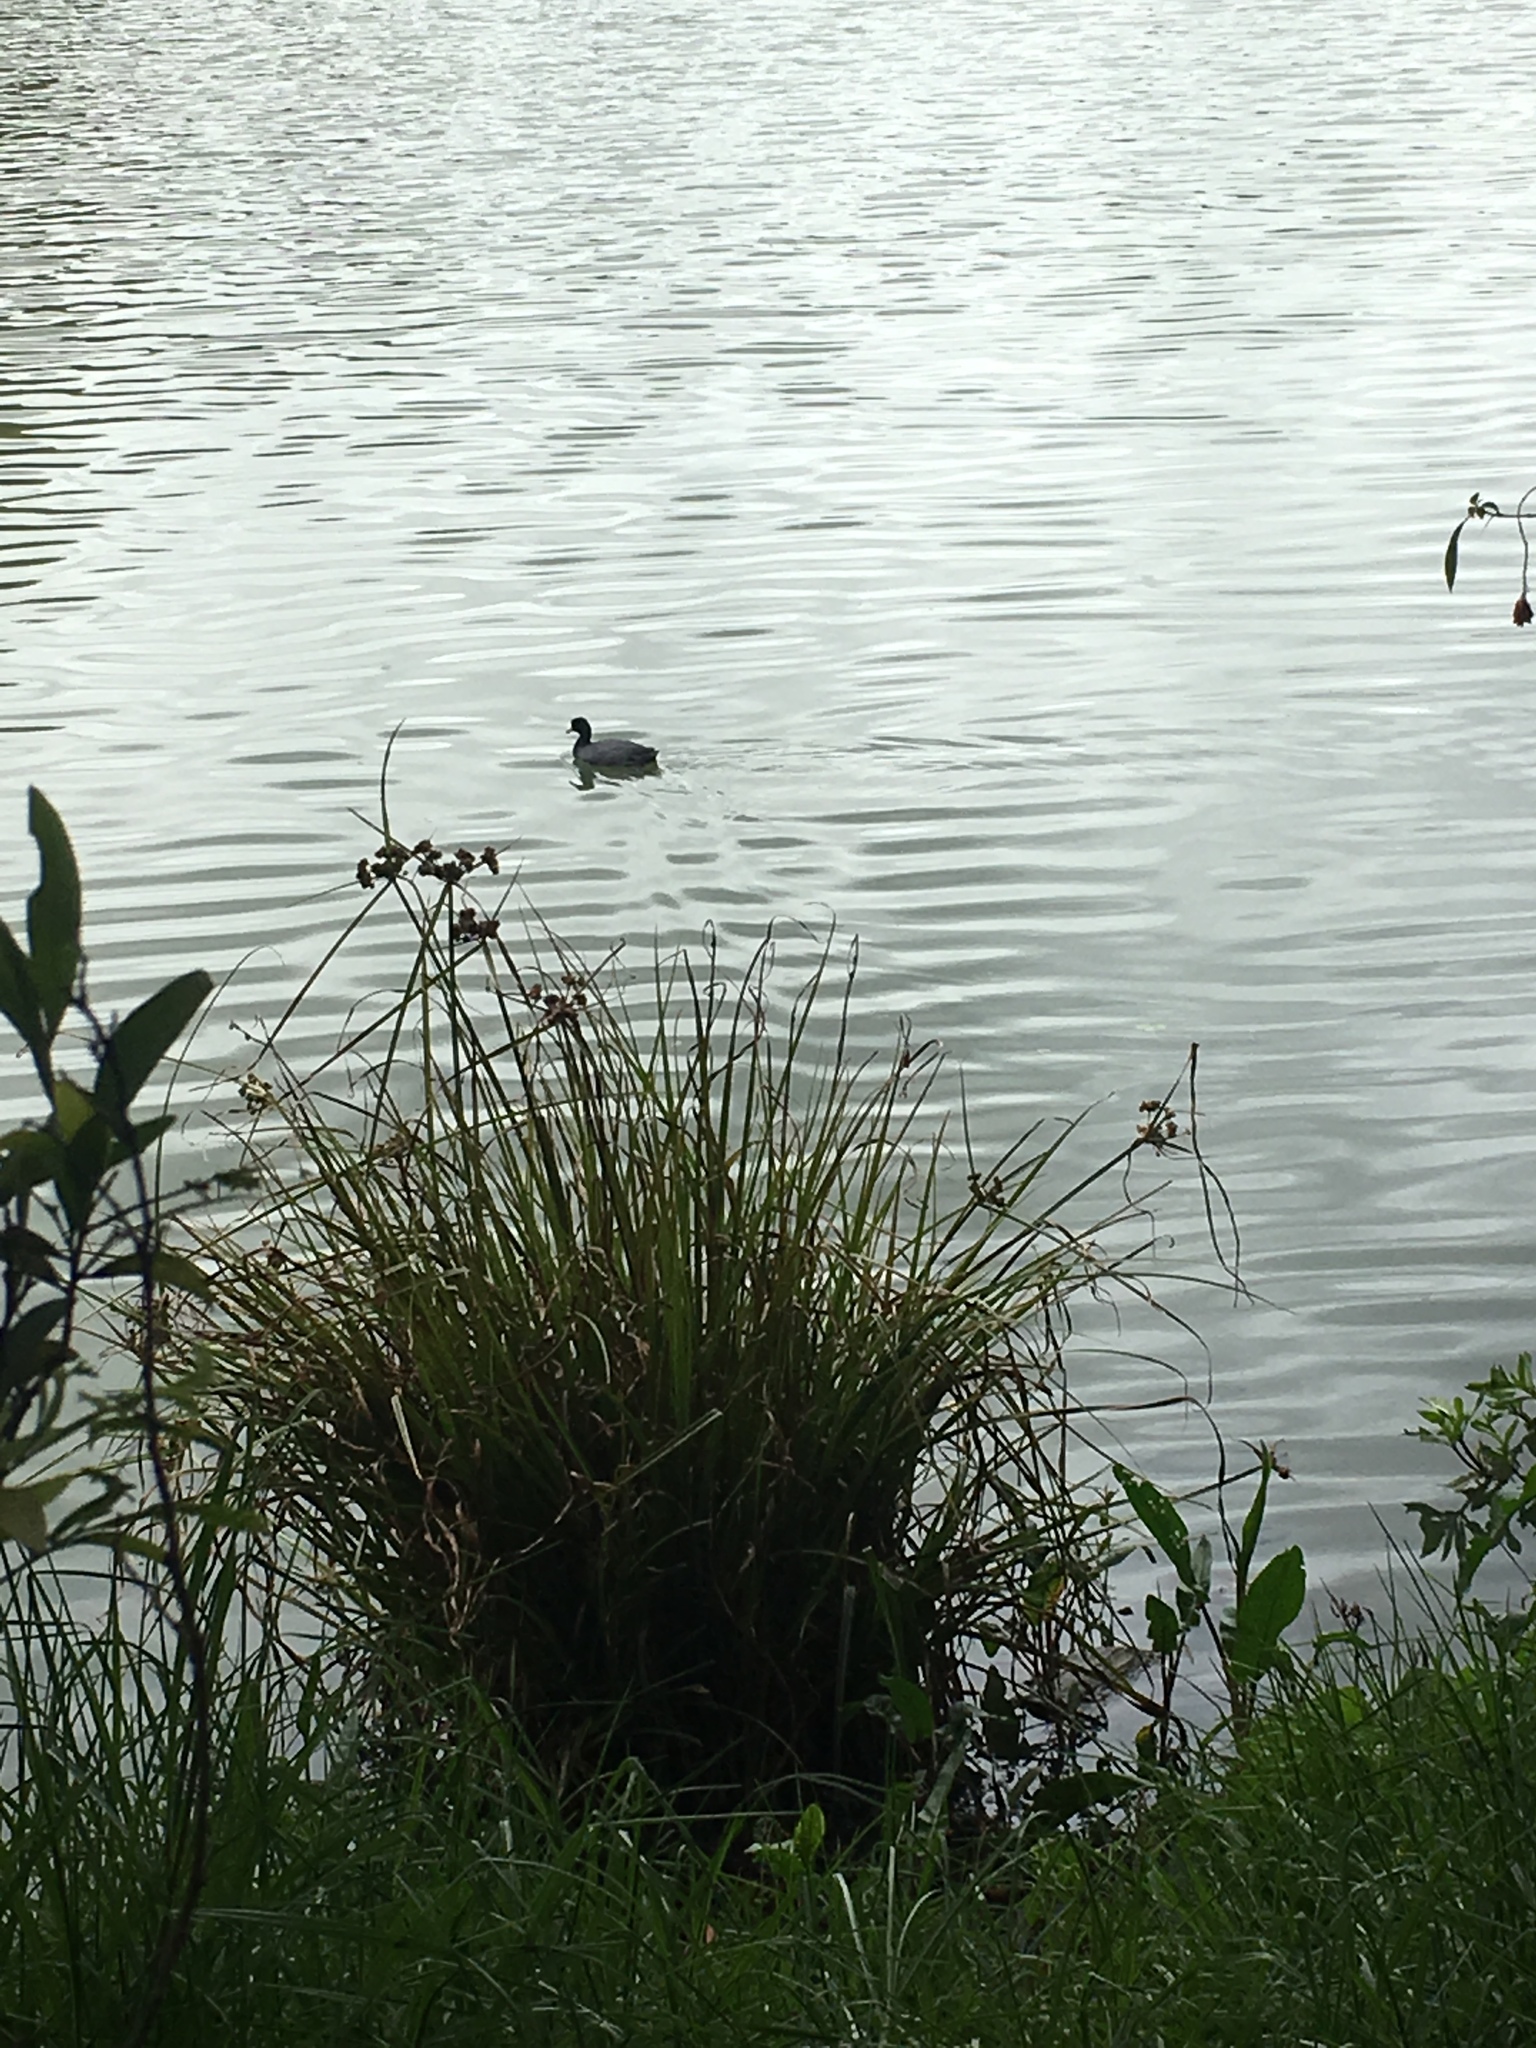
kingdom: Animalia
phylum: Chordata
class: Aves
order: Gruiformes
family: Rallidae
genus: Fulica
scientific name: Fulica americana
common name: American coot
